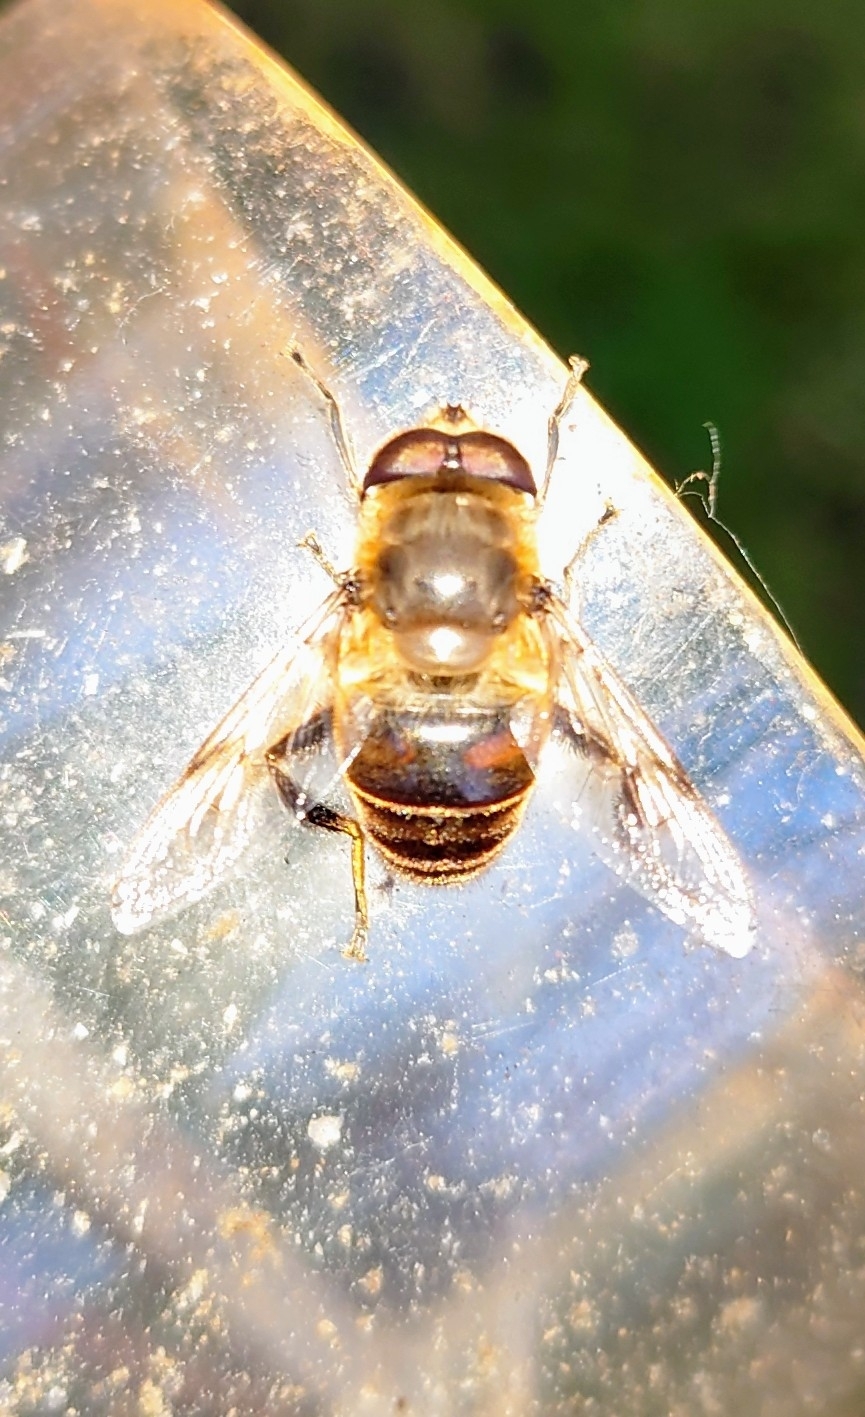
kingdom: Animalia
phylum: Arthropoda
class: Insecta
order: Diptera
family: Syrphidae
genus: Eristalis
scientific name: Eristalis tenax
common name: Drone fly
